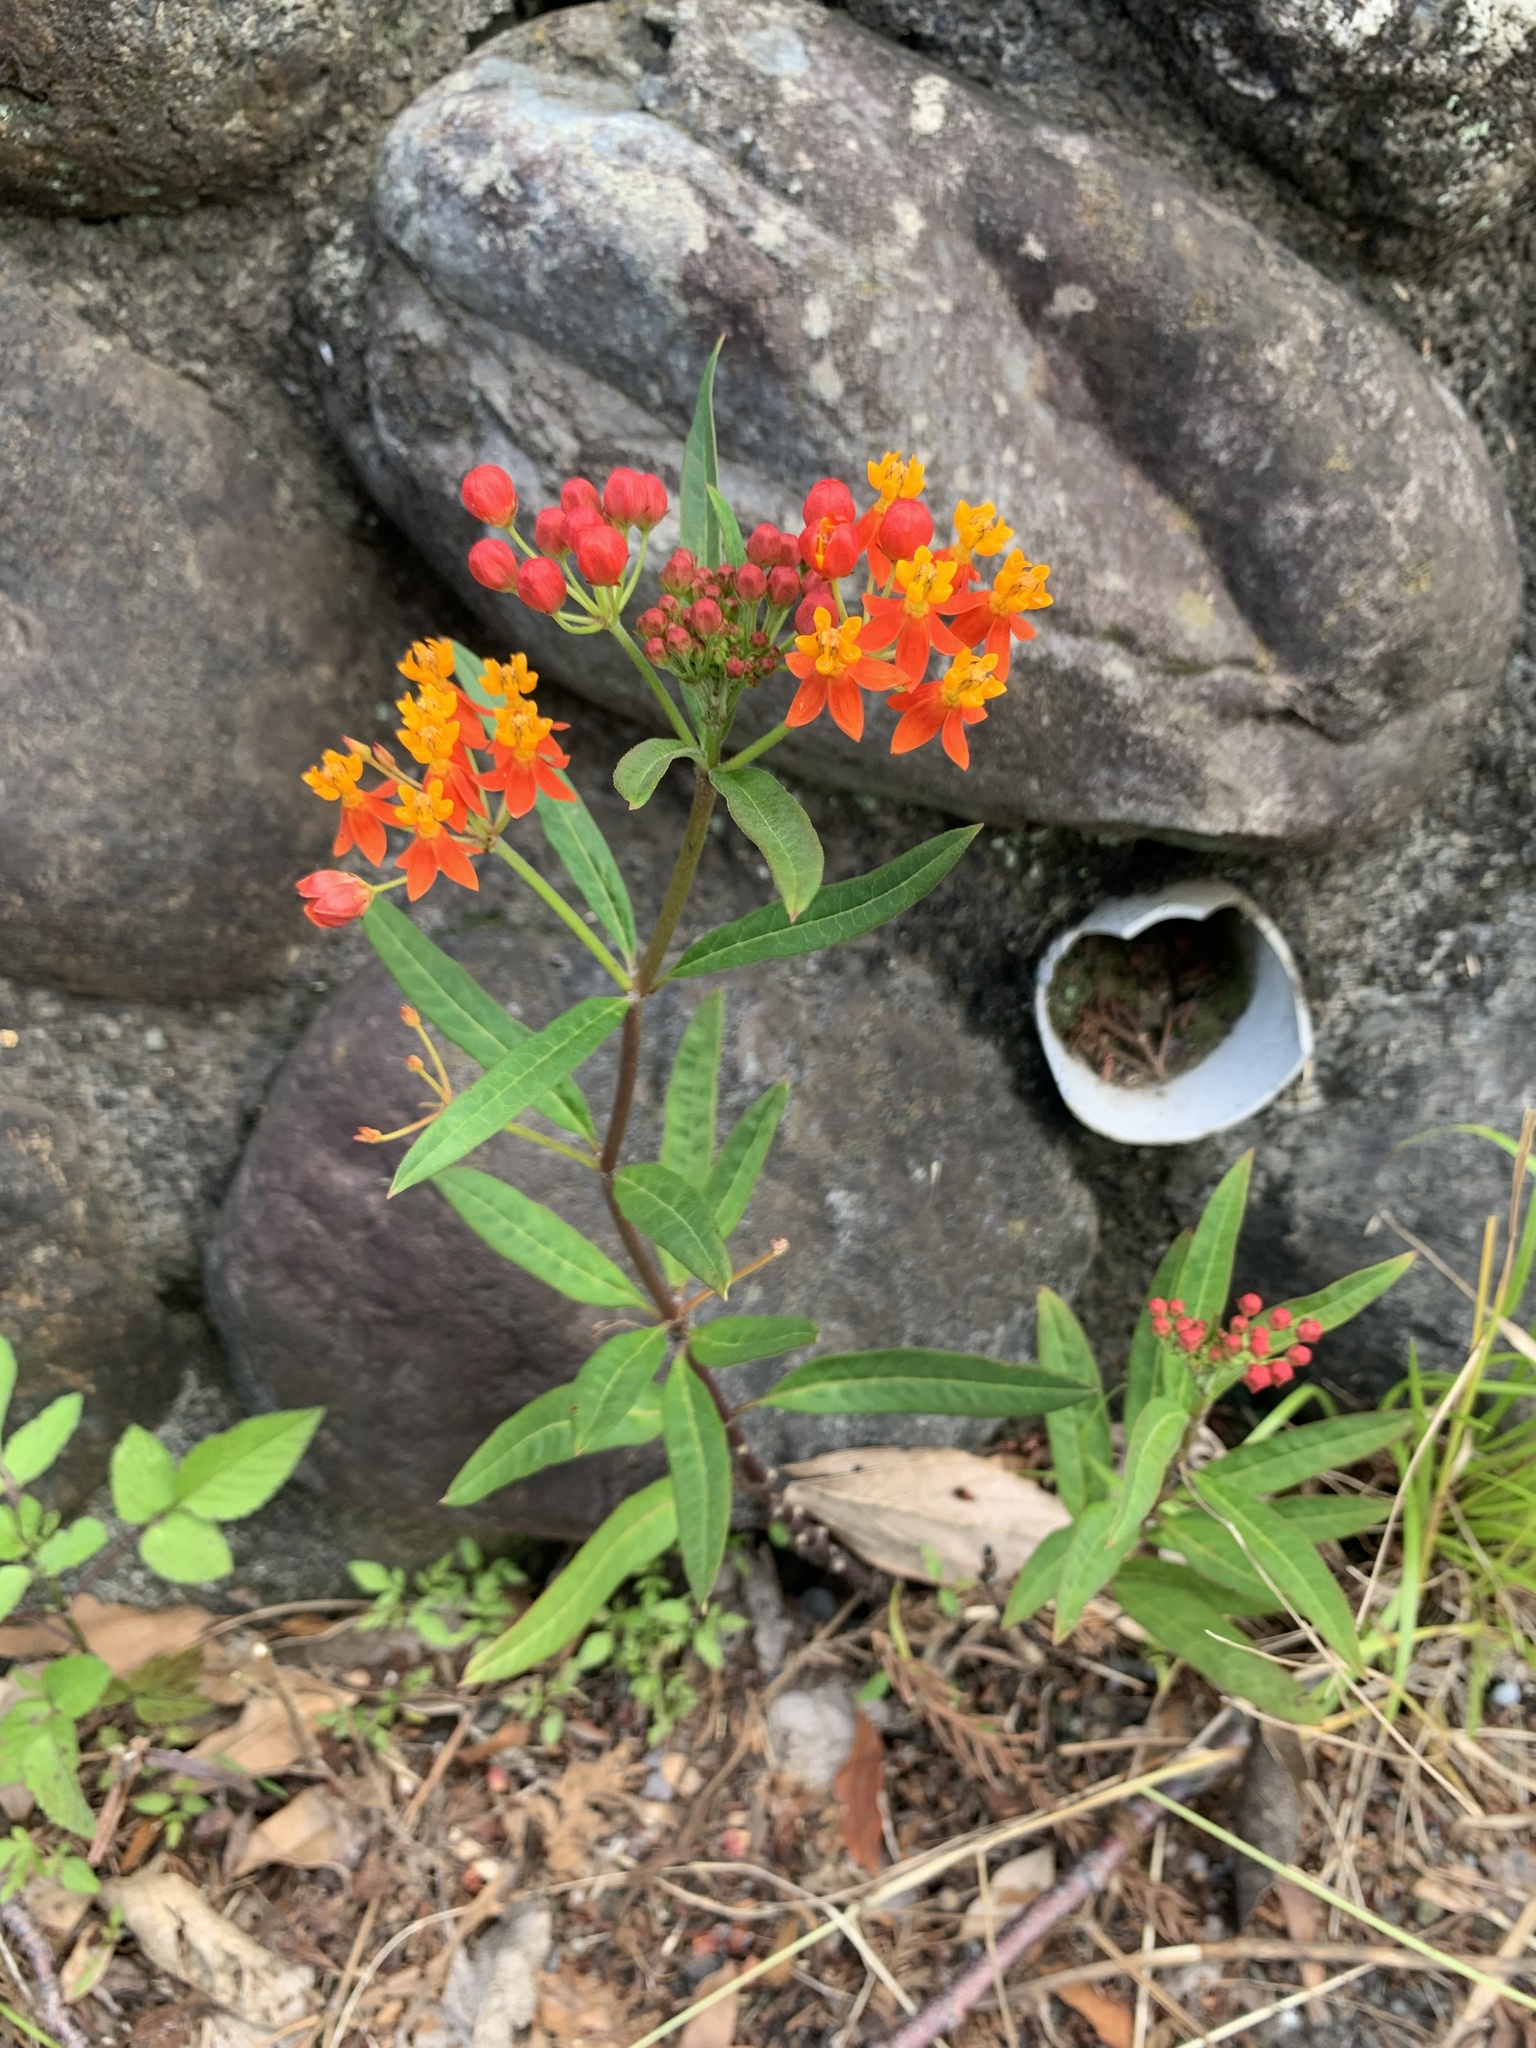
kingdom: Plantae
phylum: Tracheophyta
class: Magnoliopsida
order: Gentianales
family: Apocynaceae
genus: Asclepias
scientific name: Asclepias curassavica
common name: Bloodflower
